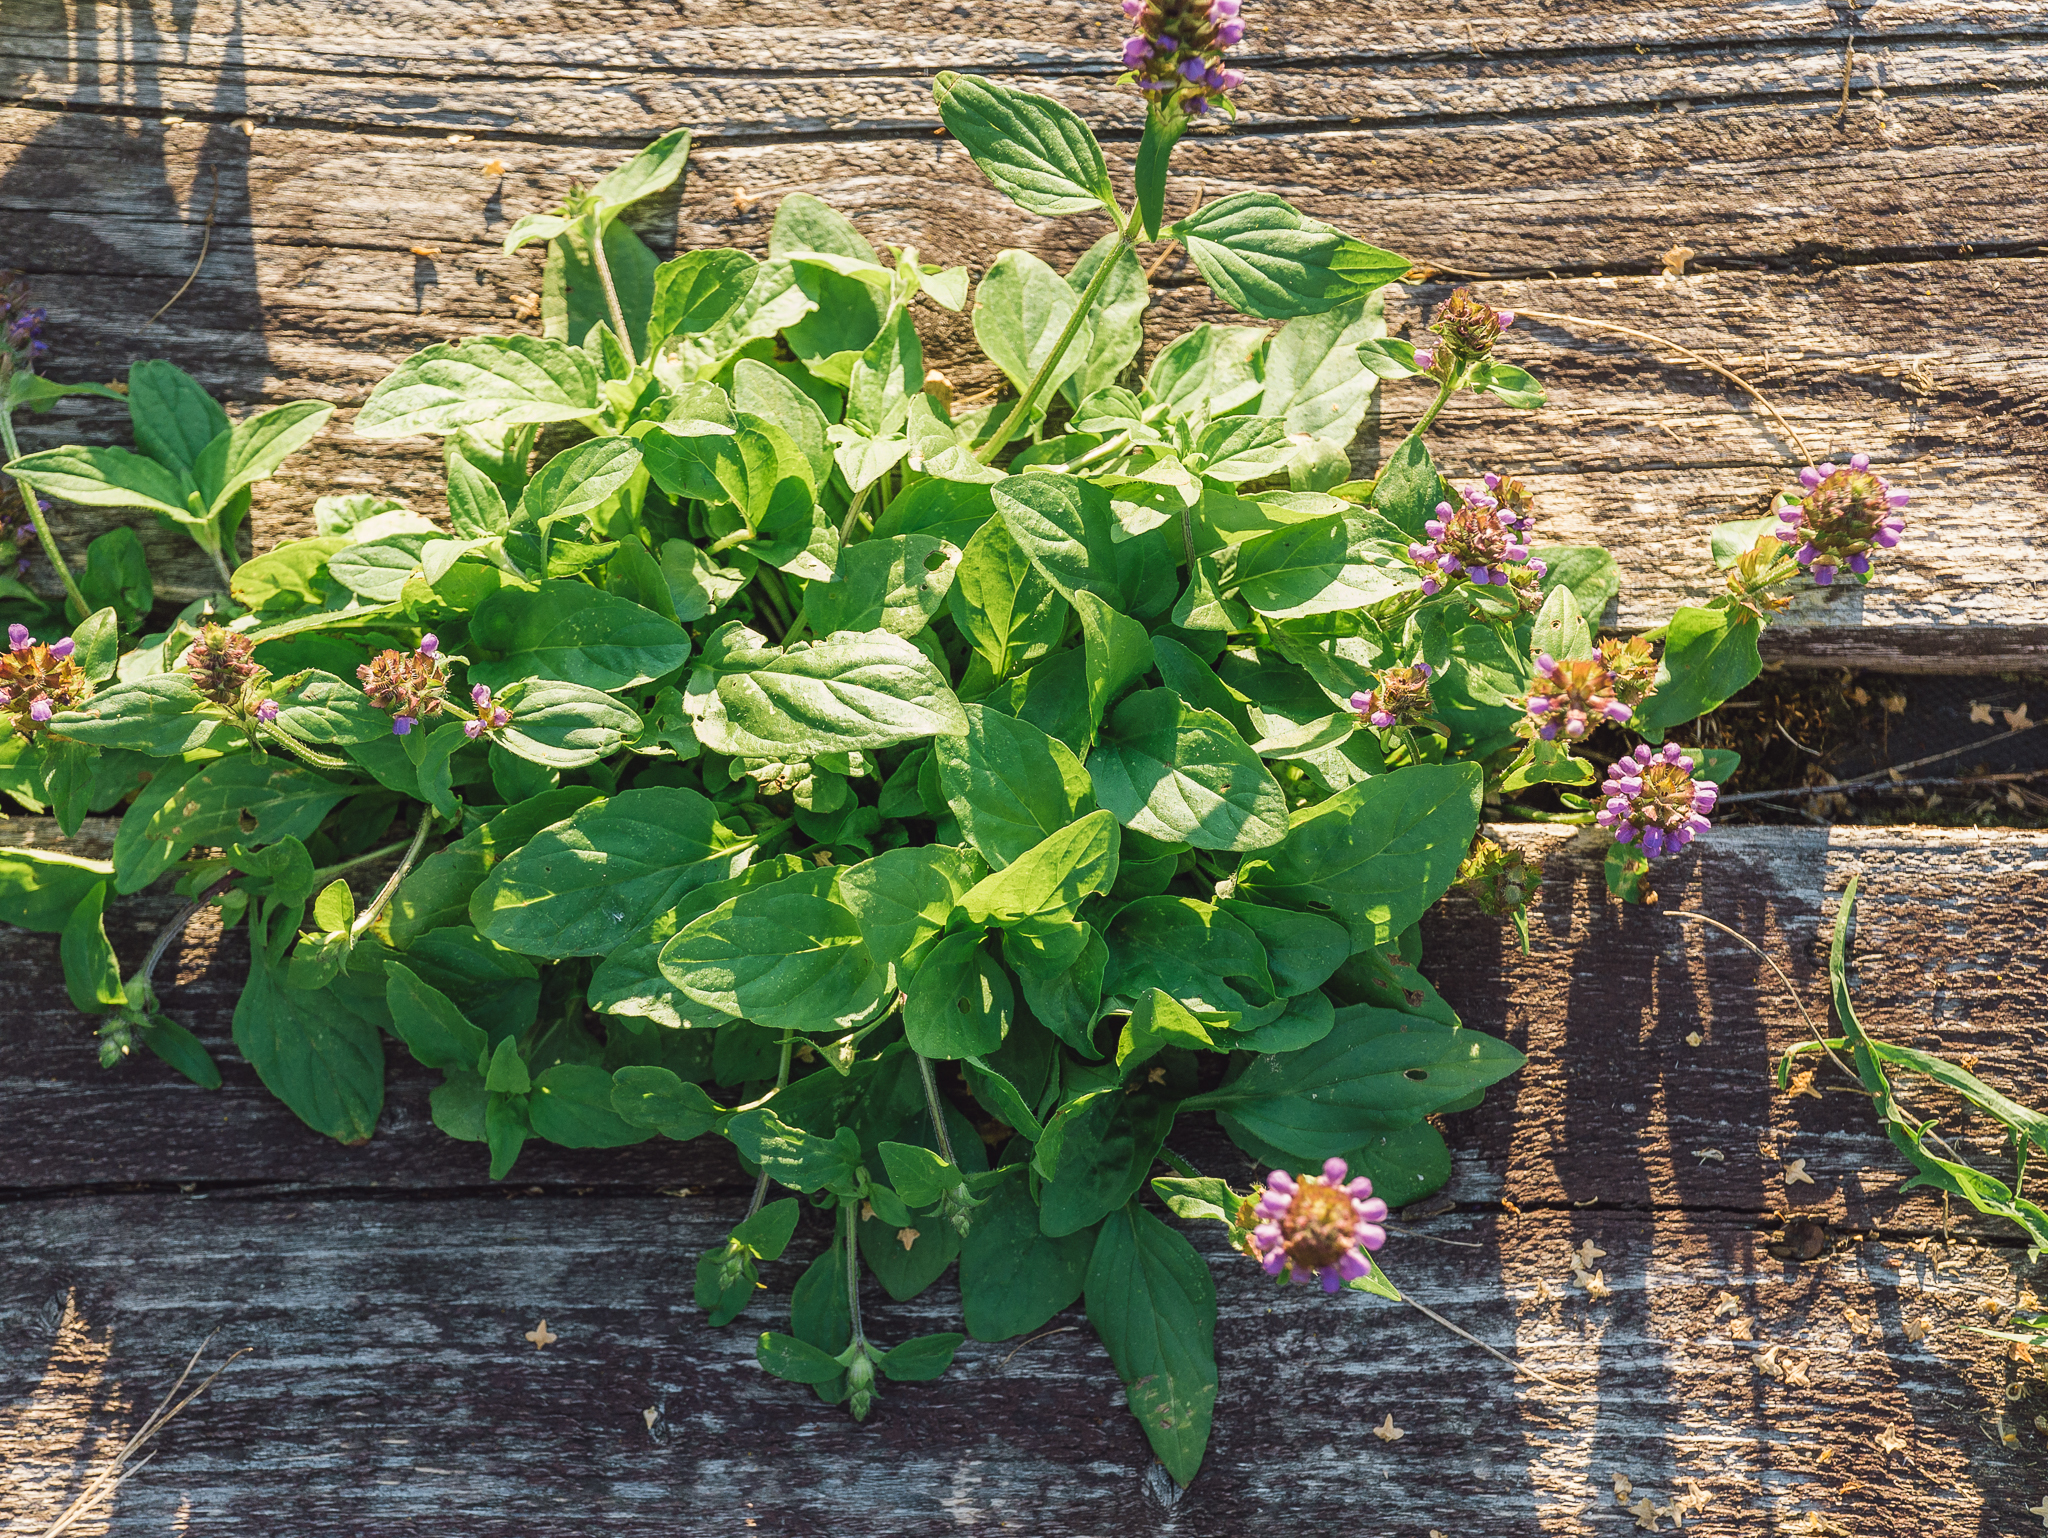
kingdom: Plantae
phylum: Tracheophyta
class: Magnoliopsida
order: Lamiales
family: Lamiaceae
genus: Prunella
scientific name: Prunella vulgaris
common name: Heal-all
